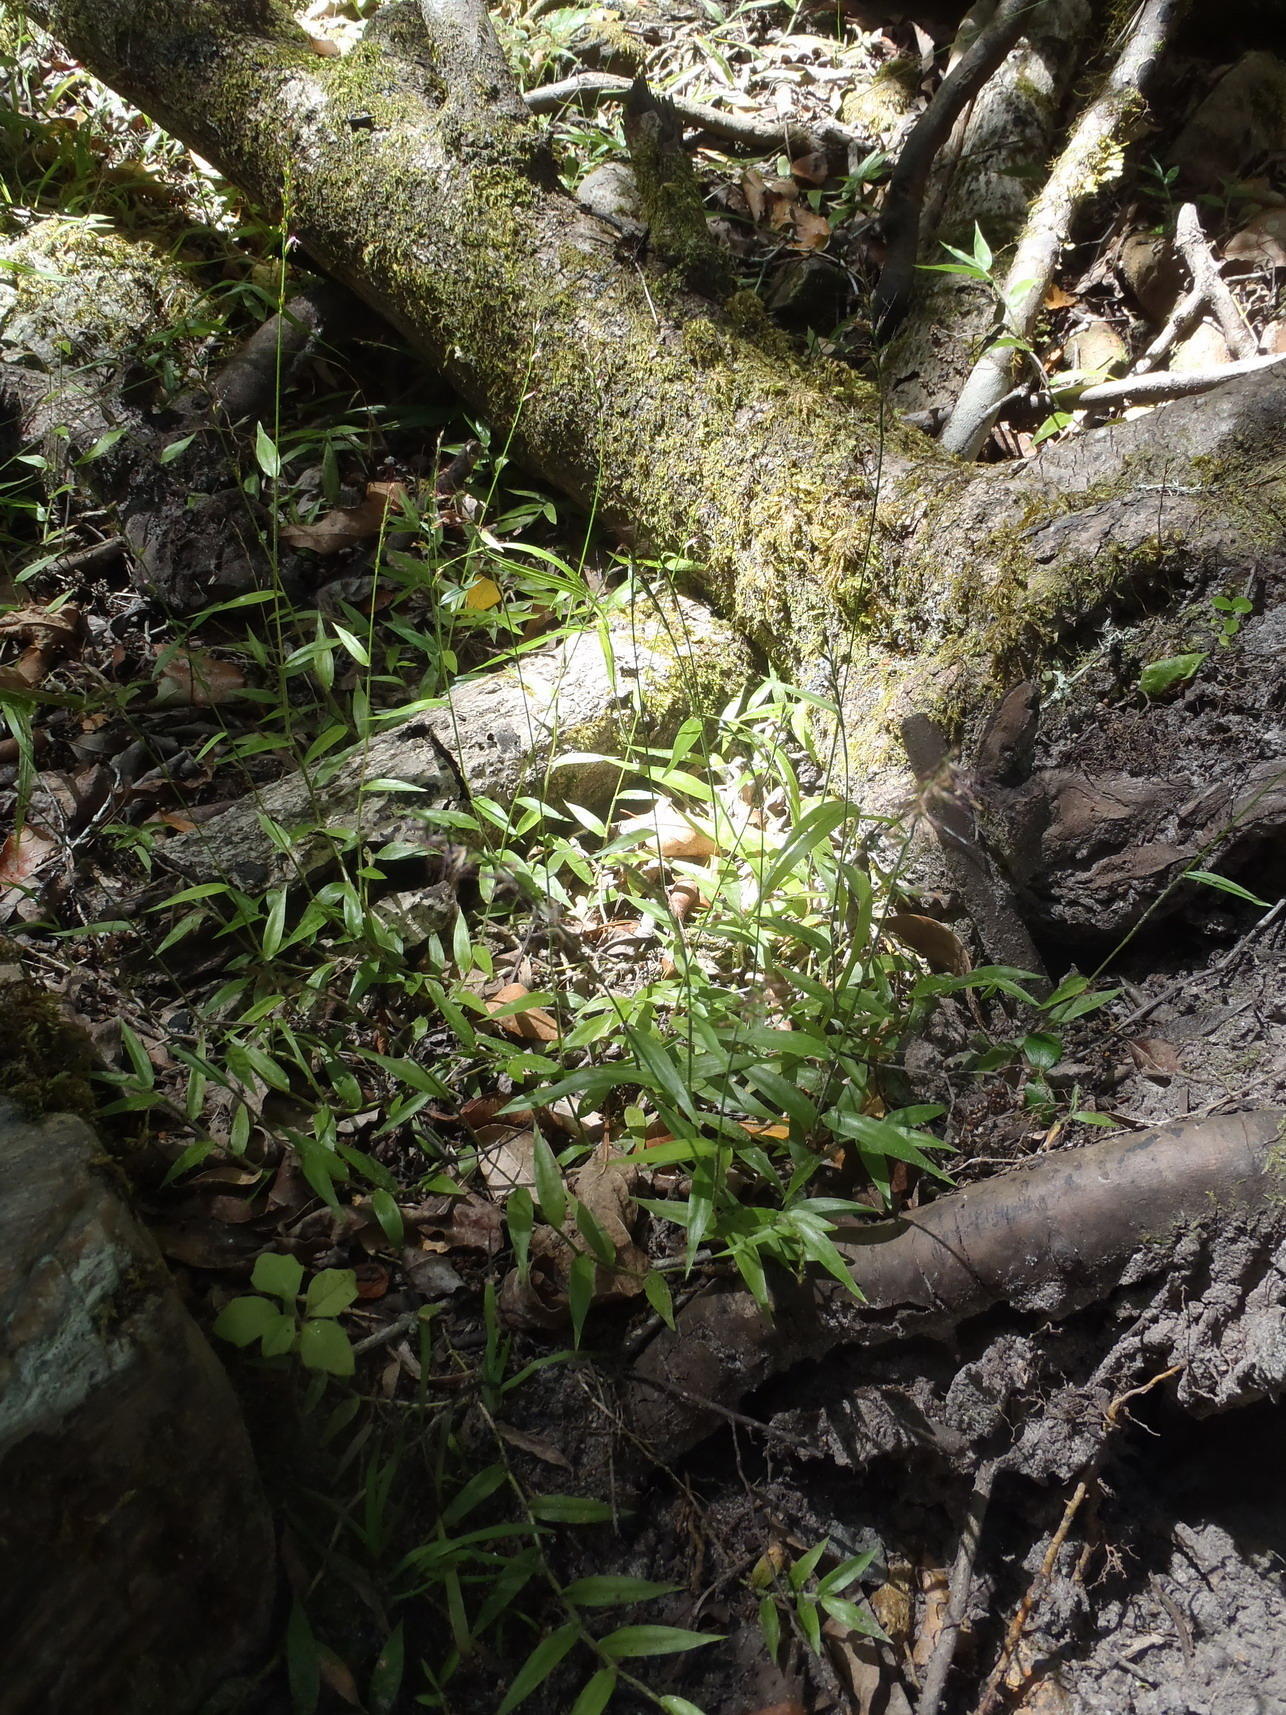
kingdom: Plantae
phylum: Tracheophyta
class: Liliopsida
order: Poales
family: Poaceae
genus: Oplismenus
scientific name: Oplismenus hirtellus
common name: Basketgrass
